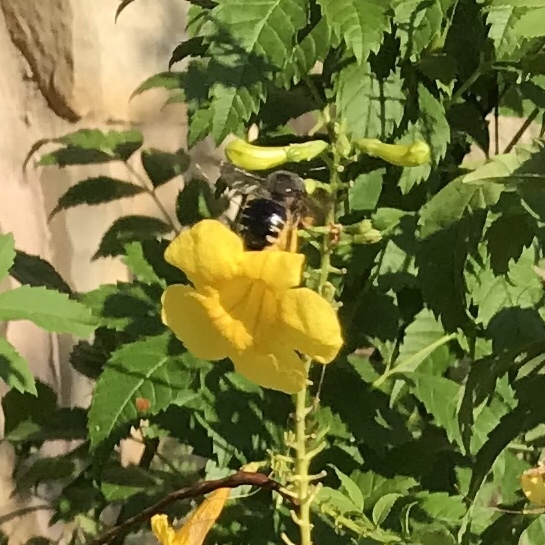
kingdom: Animalia
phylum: Arthropoda
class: Insecta
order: Hymenoptera
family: Apidae
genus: Xylocopa
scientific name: Xylocopa tabaniformis
